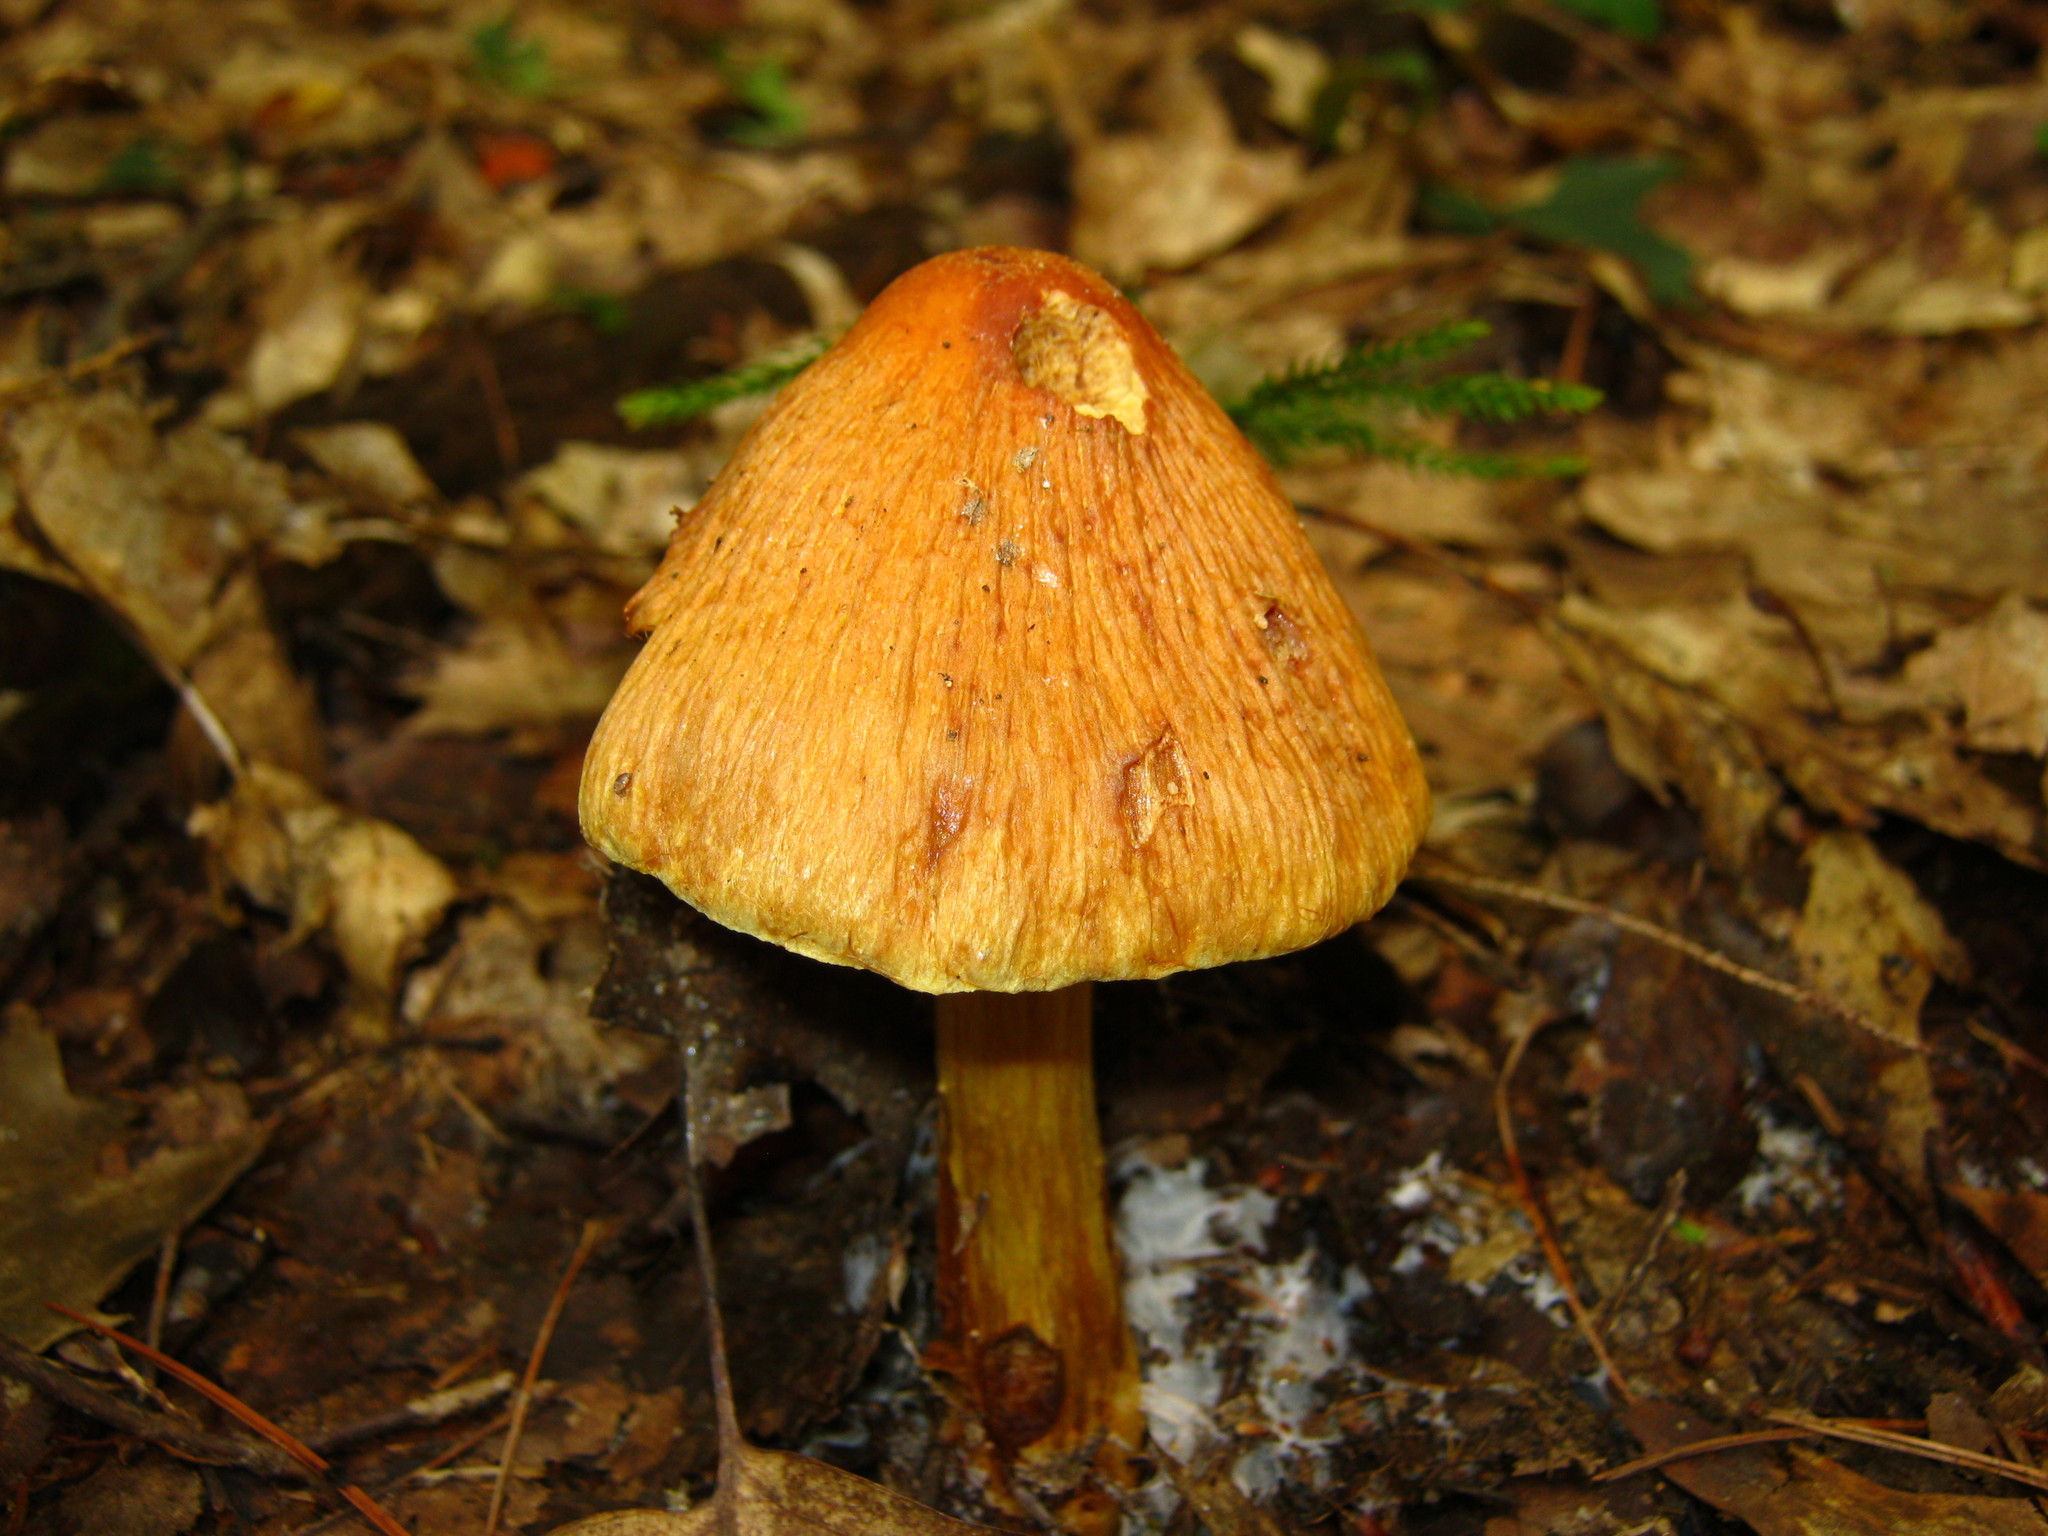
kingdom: Fungi
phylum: Basidiomycota
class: Agaricomycetes
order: Agaricales
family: Cortinariaceae
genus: Cortinarius
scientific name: Cortinarius corrugatus
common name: Wrinkled cortinarius
